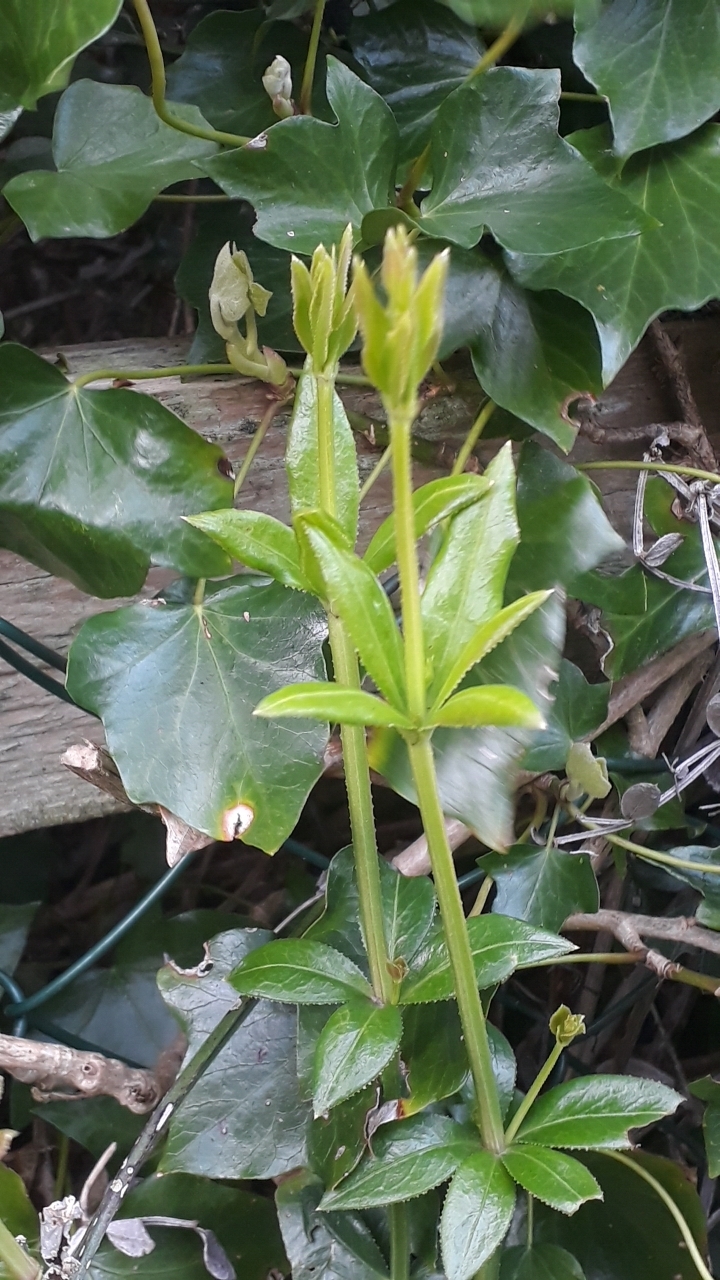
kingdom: Plantae
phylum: Tracheophyta
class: Magnoliopsida
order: Gentianales
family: Rubiaceae
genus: Rubia
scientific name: Rubia peregrina
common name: Wild madder
